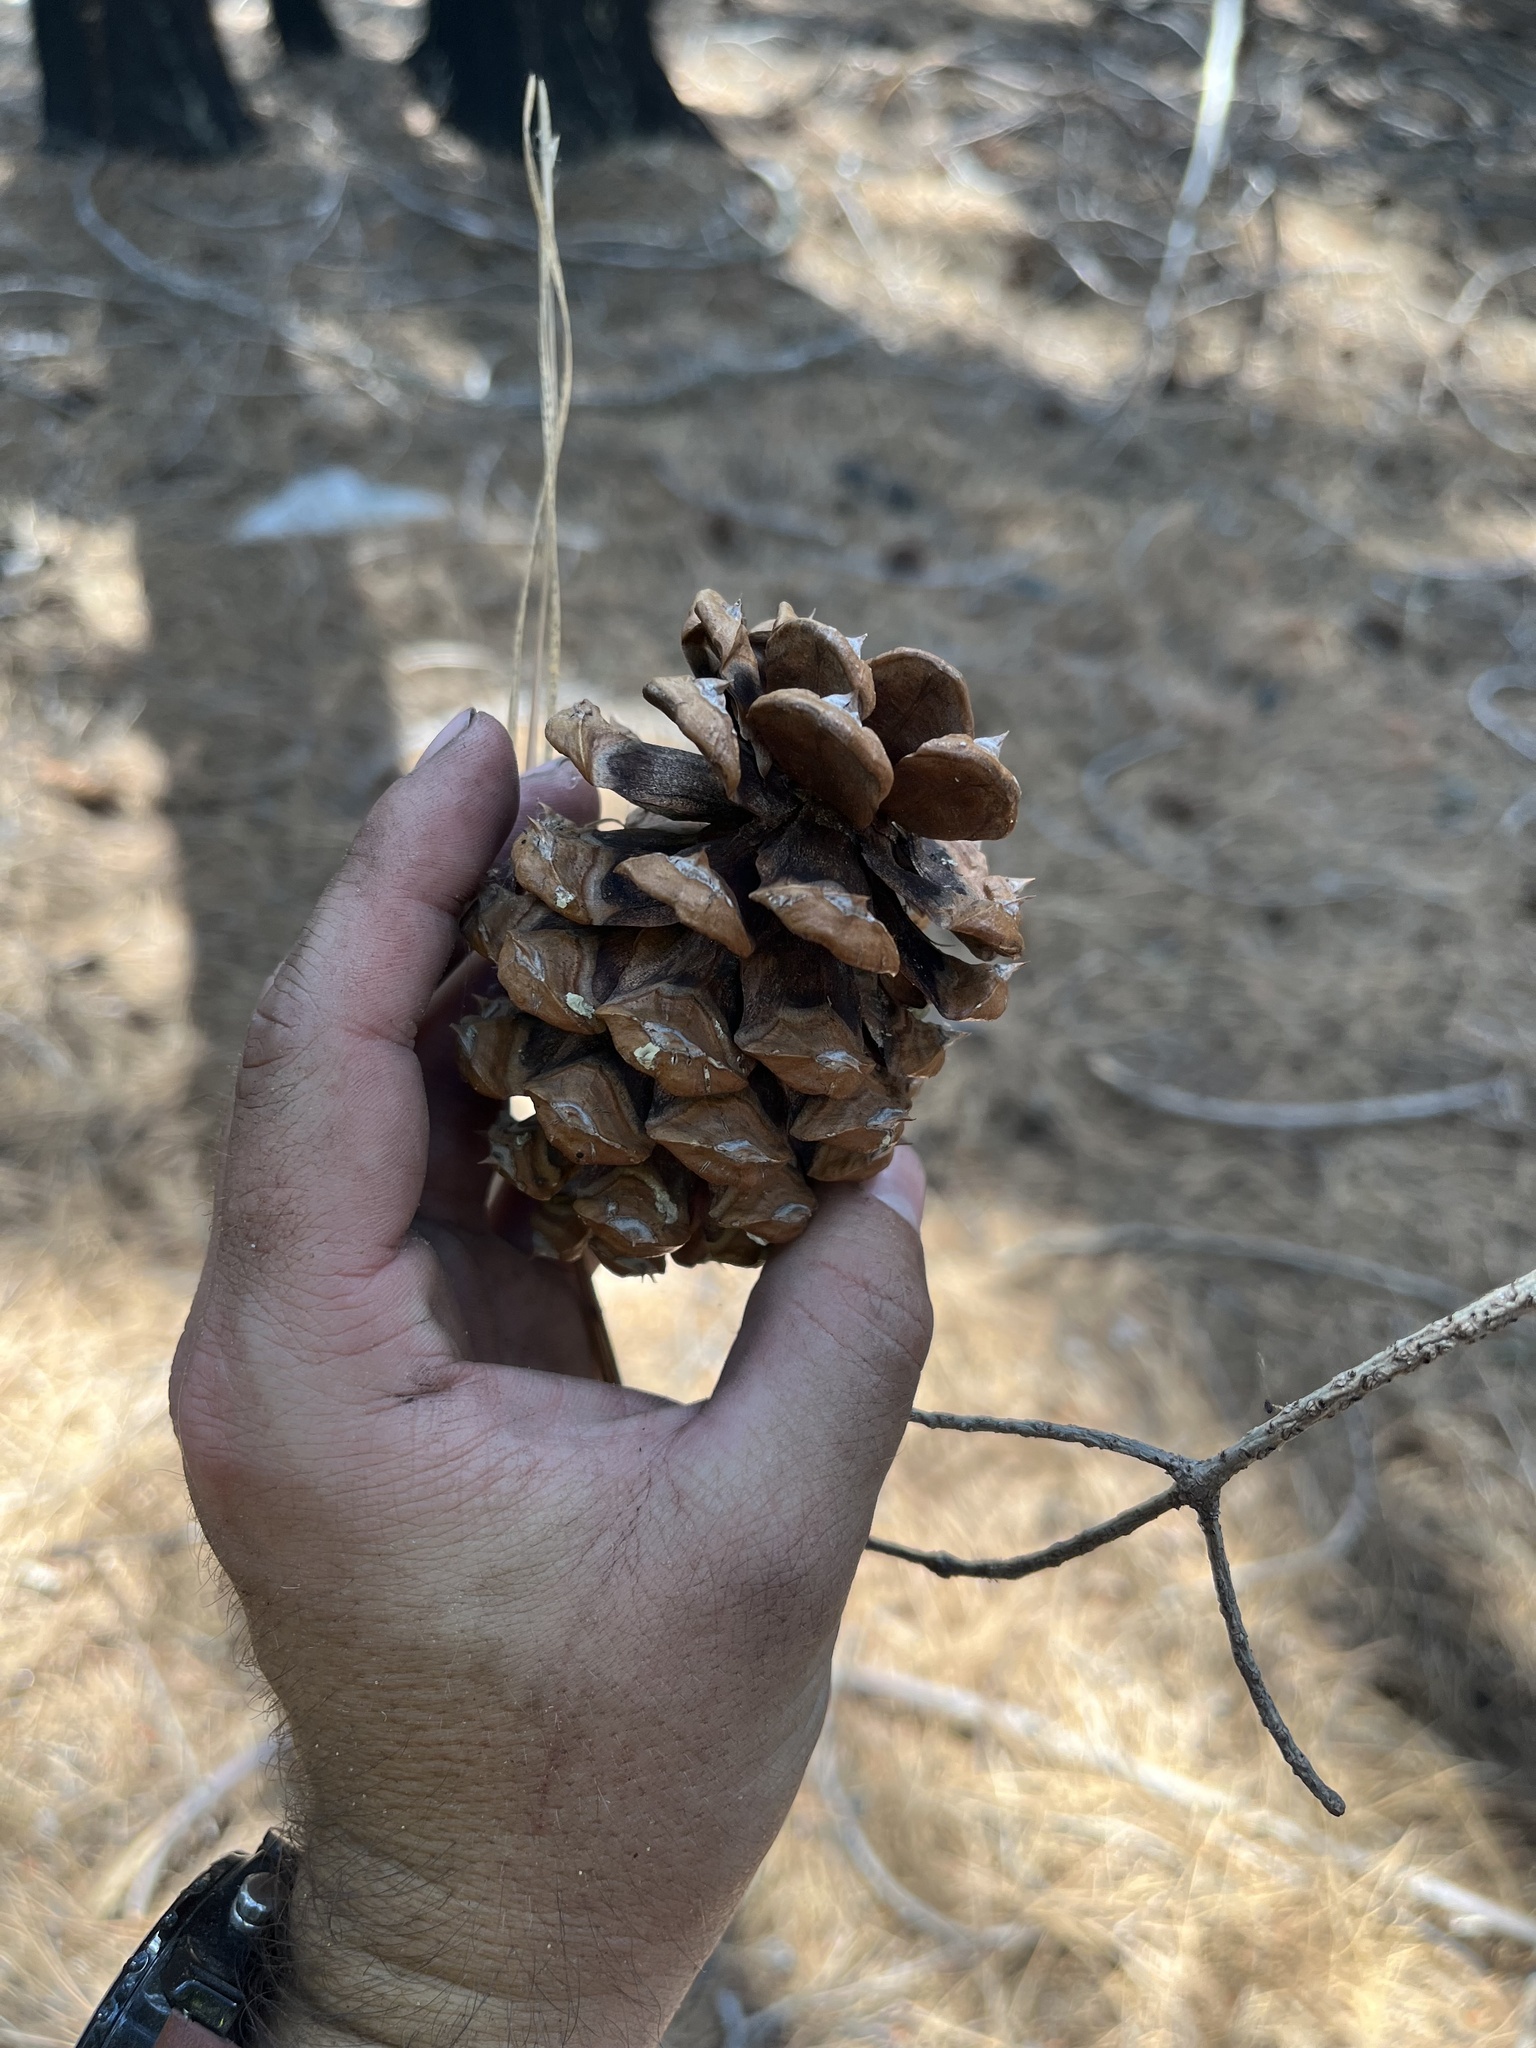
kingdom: Plantae
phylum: Tracheophyta
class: Pinopsida
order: Pinales
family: Pinaceae
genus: Pinus
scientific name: Pinus ponderosa
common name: Western yellow-pine
